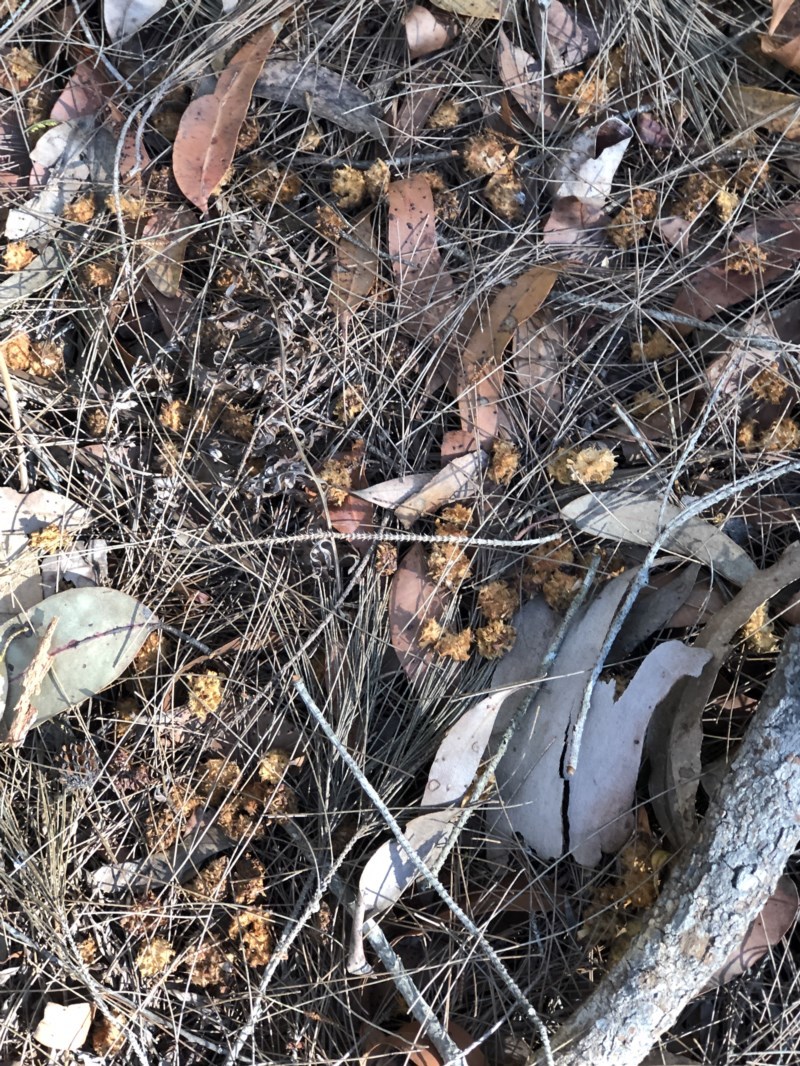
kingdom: Animalia
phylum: Chordata
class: Aves
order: Psittaciformes
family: Psittacidae
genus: Calyptorhynchus
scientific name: Calyptorhynchus lathami
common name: Glossy black cockatoo
